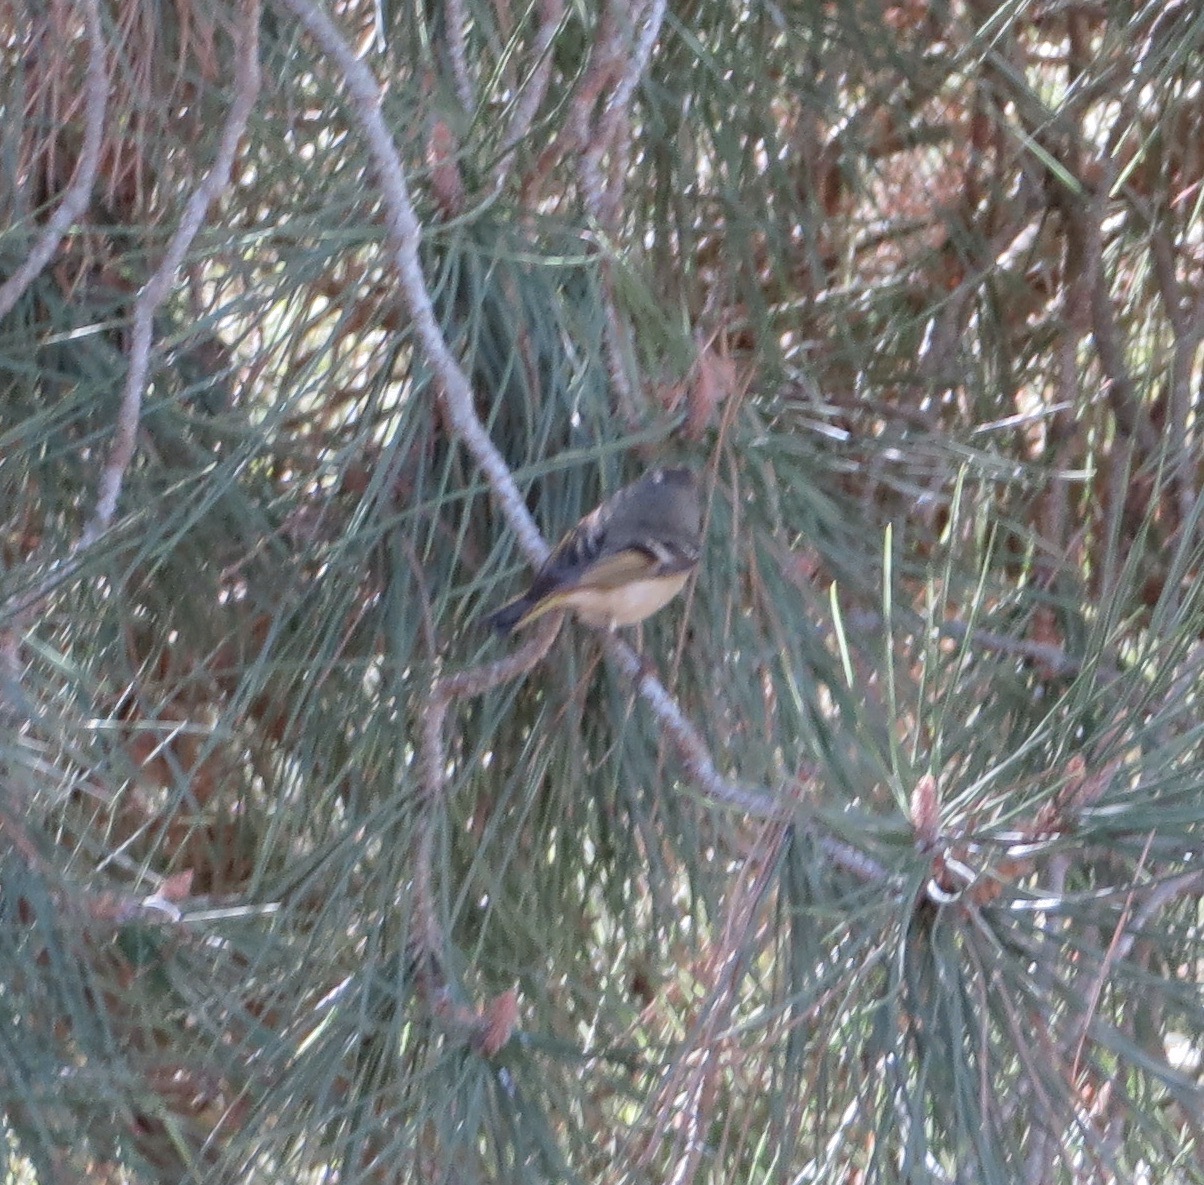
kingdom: Animalia
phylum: Chordata
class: Aves
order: Passeriformes
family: Regulidae
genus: Regulus
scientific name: Regulus calendula
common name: Ruby-crowned kinglet
